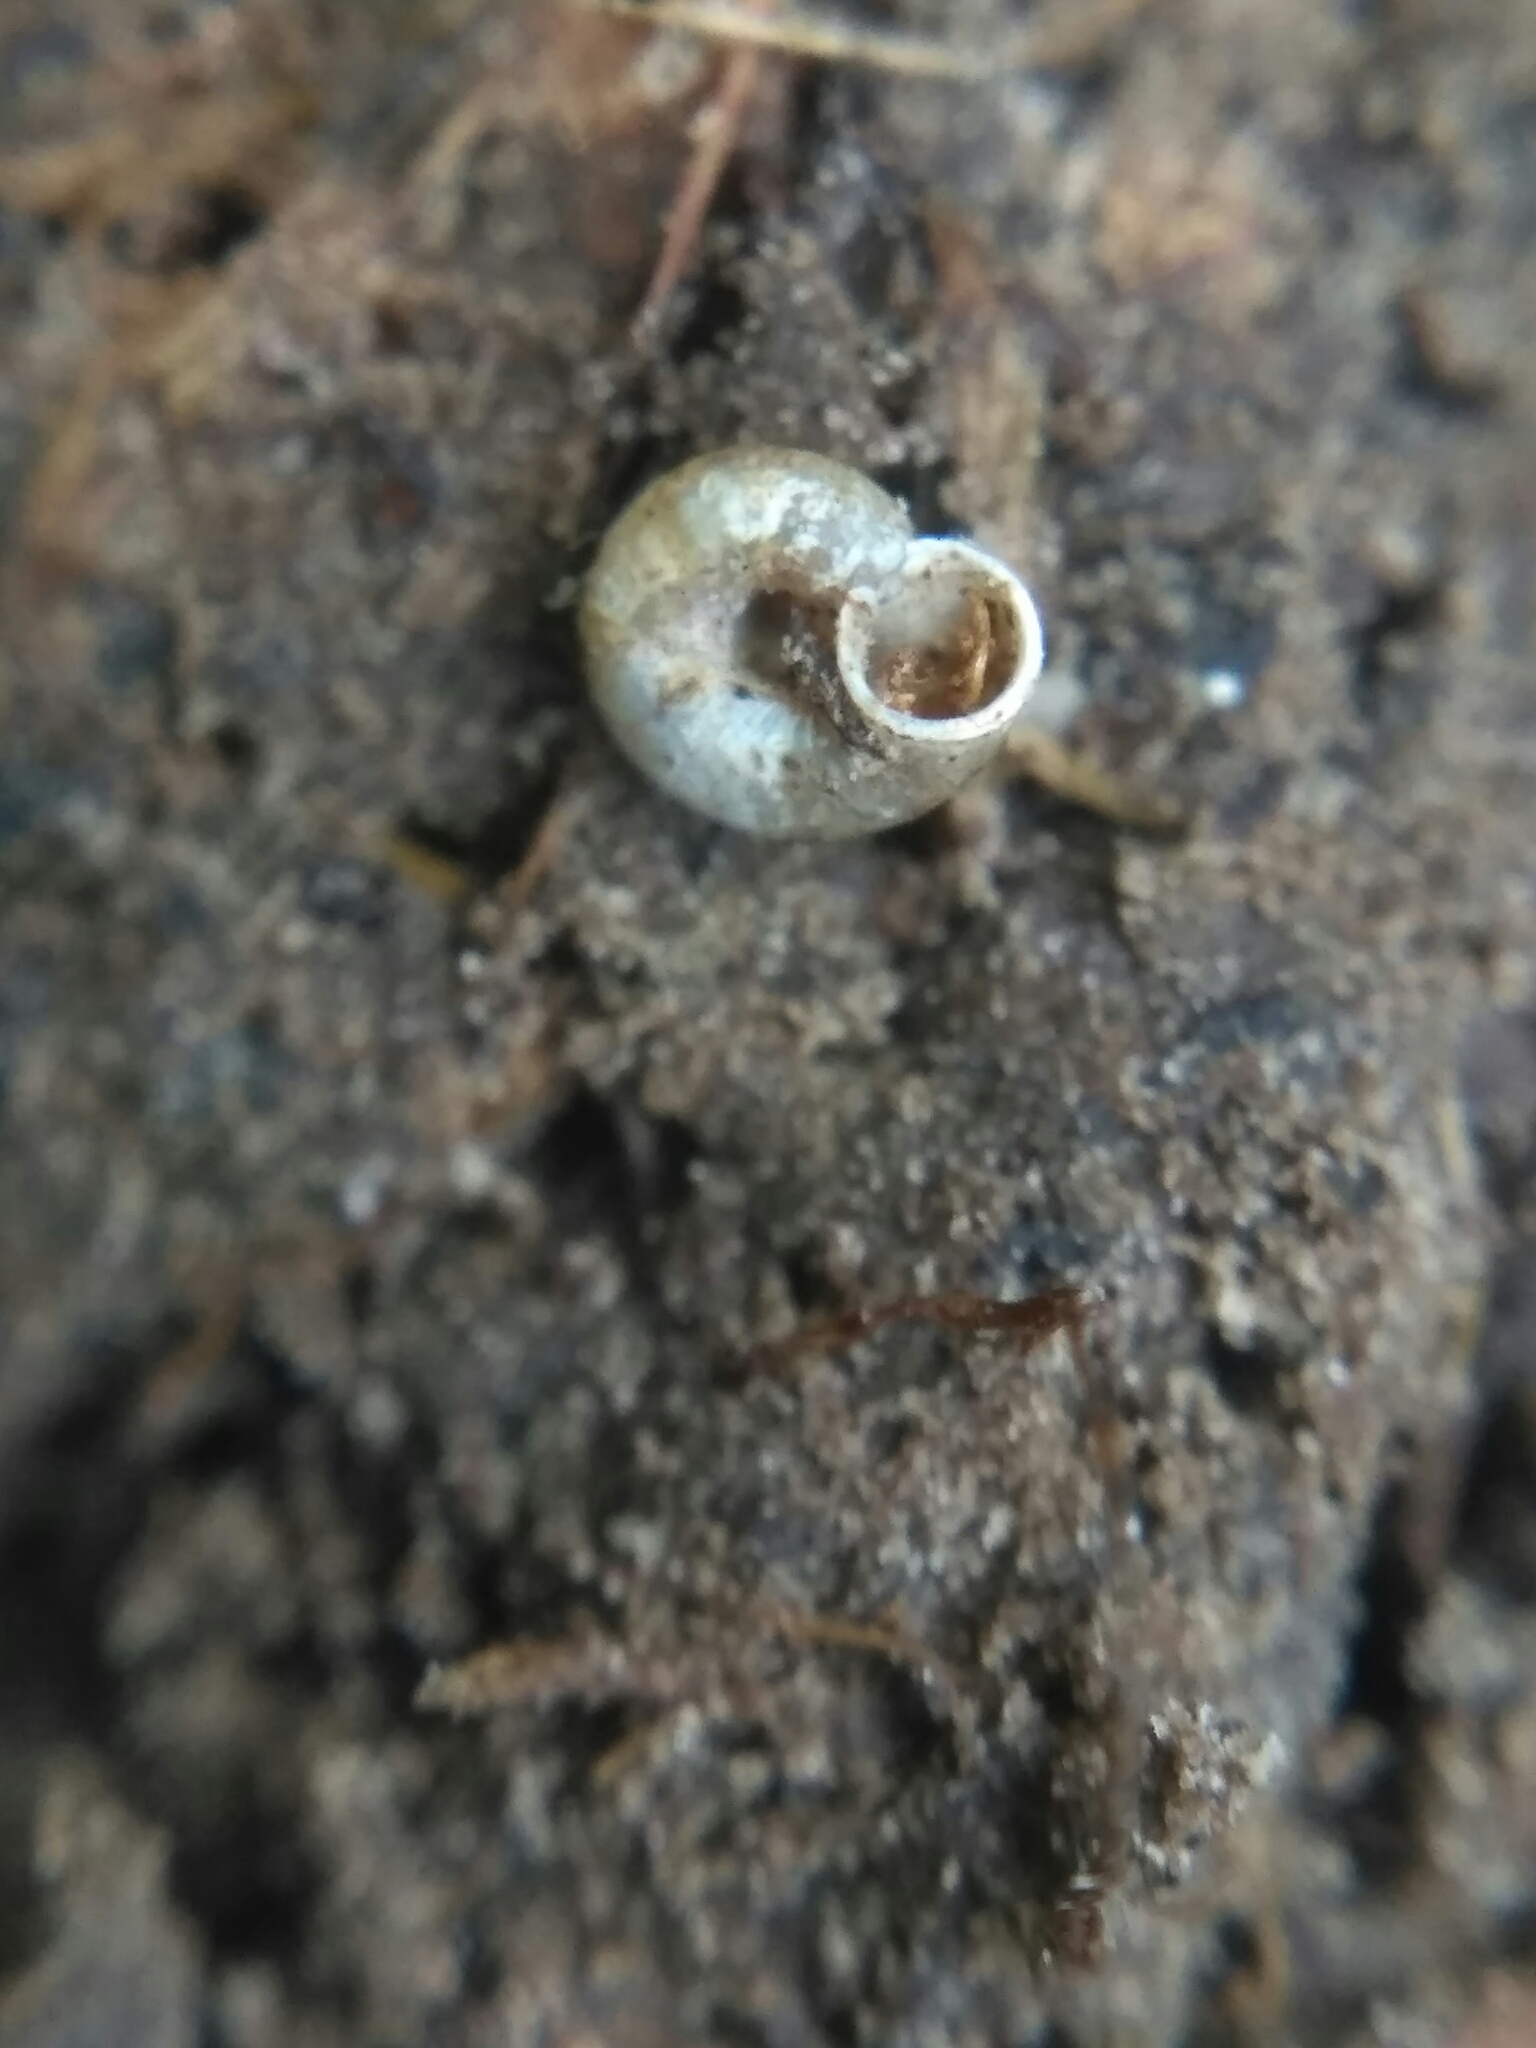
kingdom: Animalia
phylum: Mollusca
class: Gastropoda
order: Stylommatophora
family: Valloniidae
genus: Vallonia
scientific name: Vallonia excentrica
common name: Eccentric grass snail
